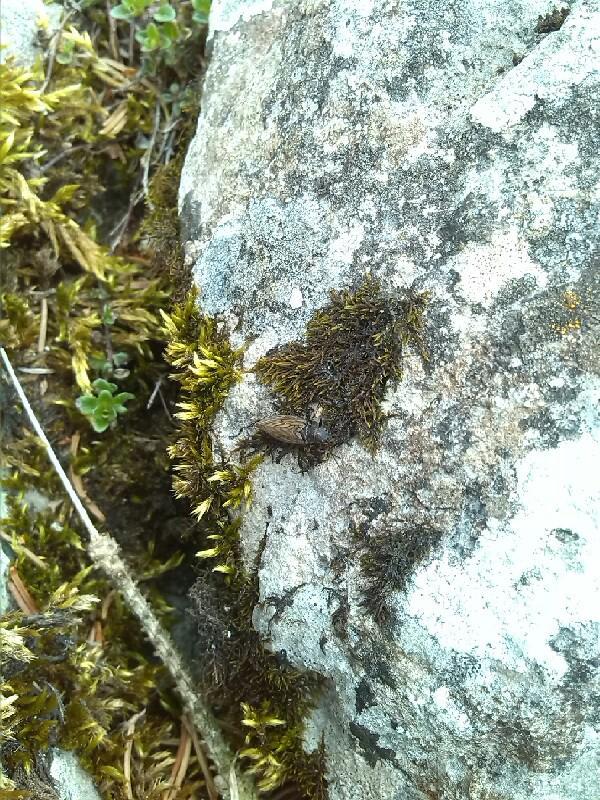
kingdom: Animalia
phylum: Arthropoda
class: Insecta
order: Megaloptera
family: Sialidae
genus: Sialis
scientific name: Sialis
